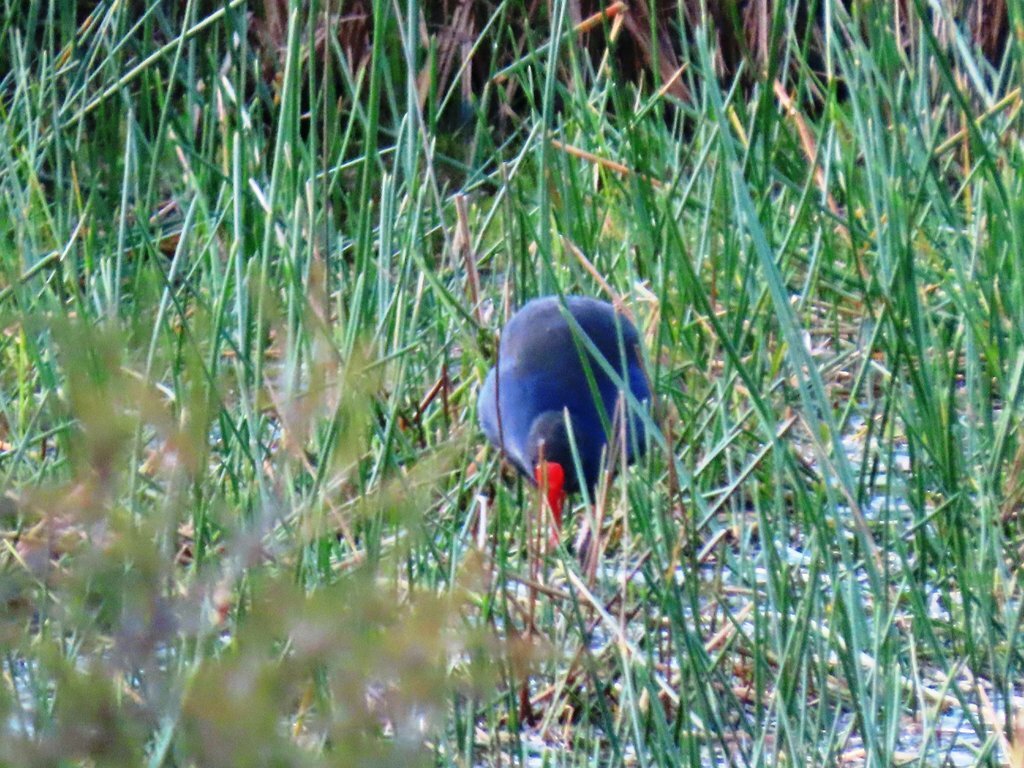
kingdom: Animalia
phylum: Chordata
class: Aves
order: Gruiformes
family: Rallidae
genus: Porphyrio
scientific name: Porphyrio melanotus
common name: Australasian swamphen
